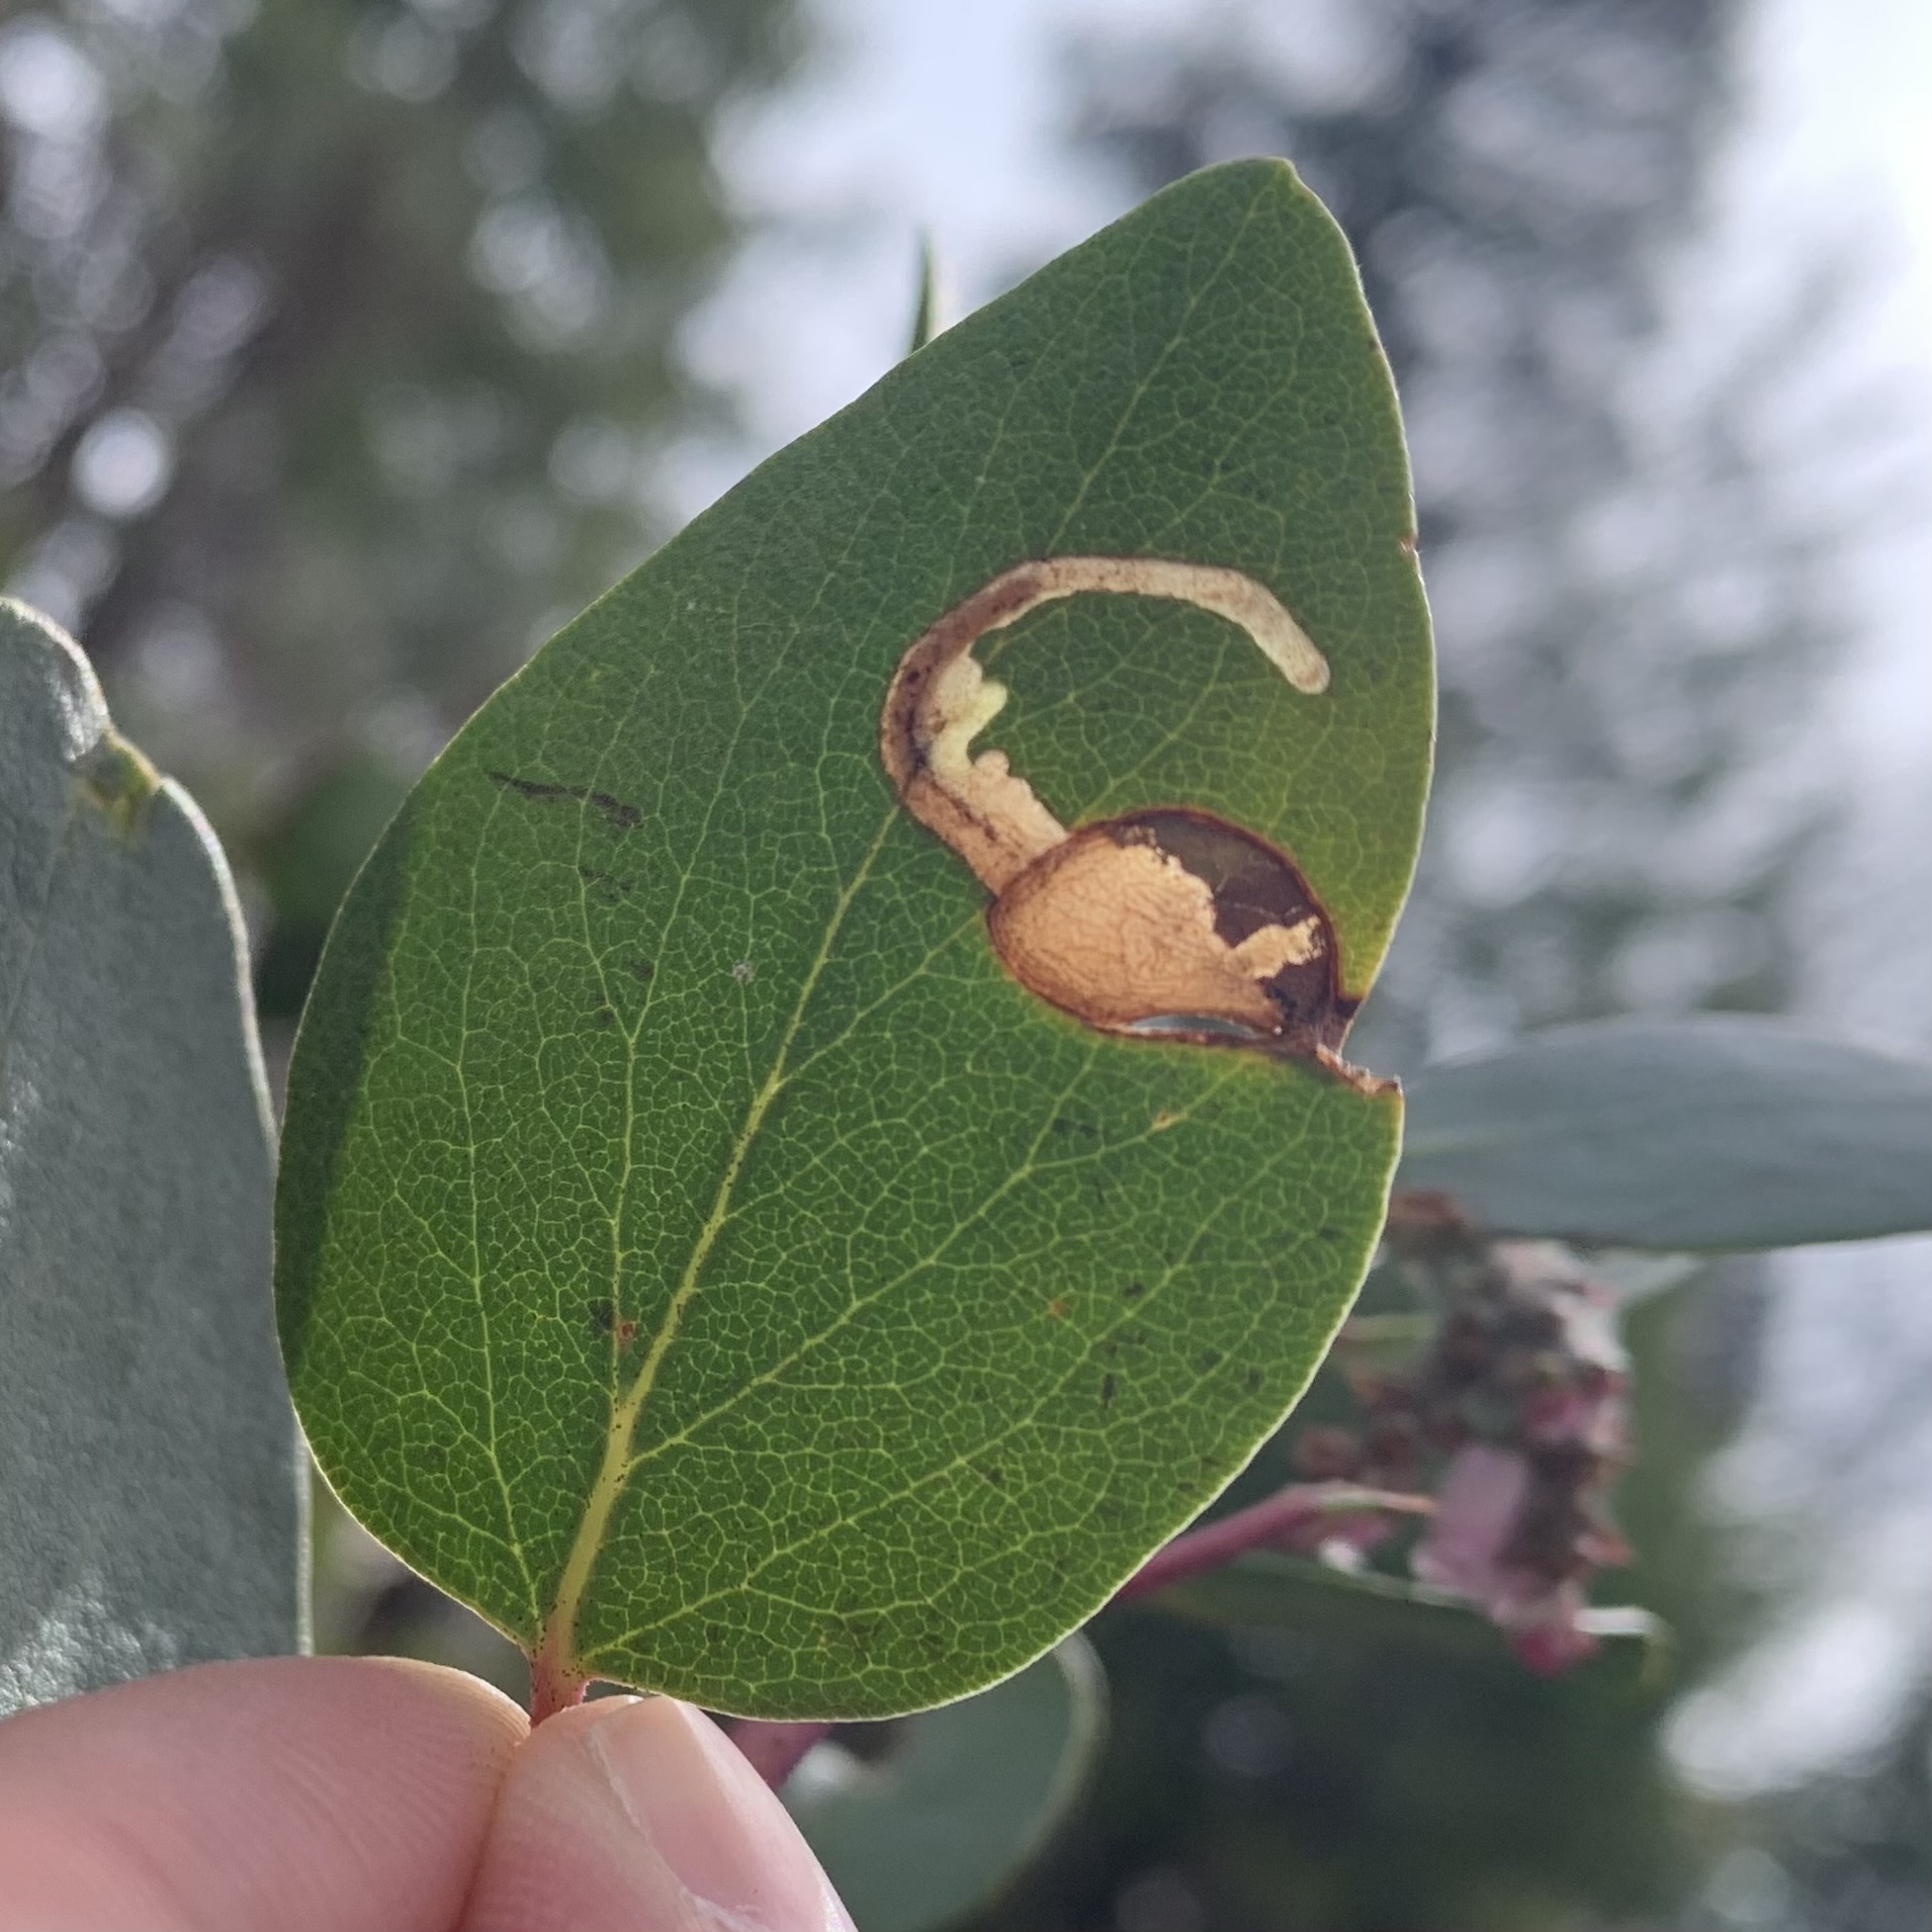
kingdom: Animalia
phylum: Arthropoda
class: Insecta
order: Lepidoptera
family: Tortricidae
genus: Epinotia
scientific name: Epinotia nigralbana
